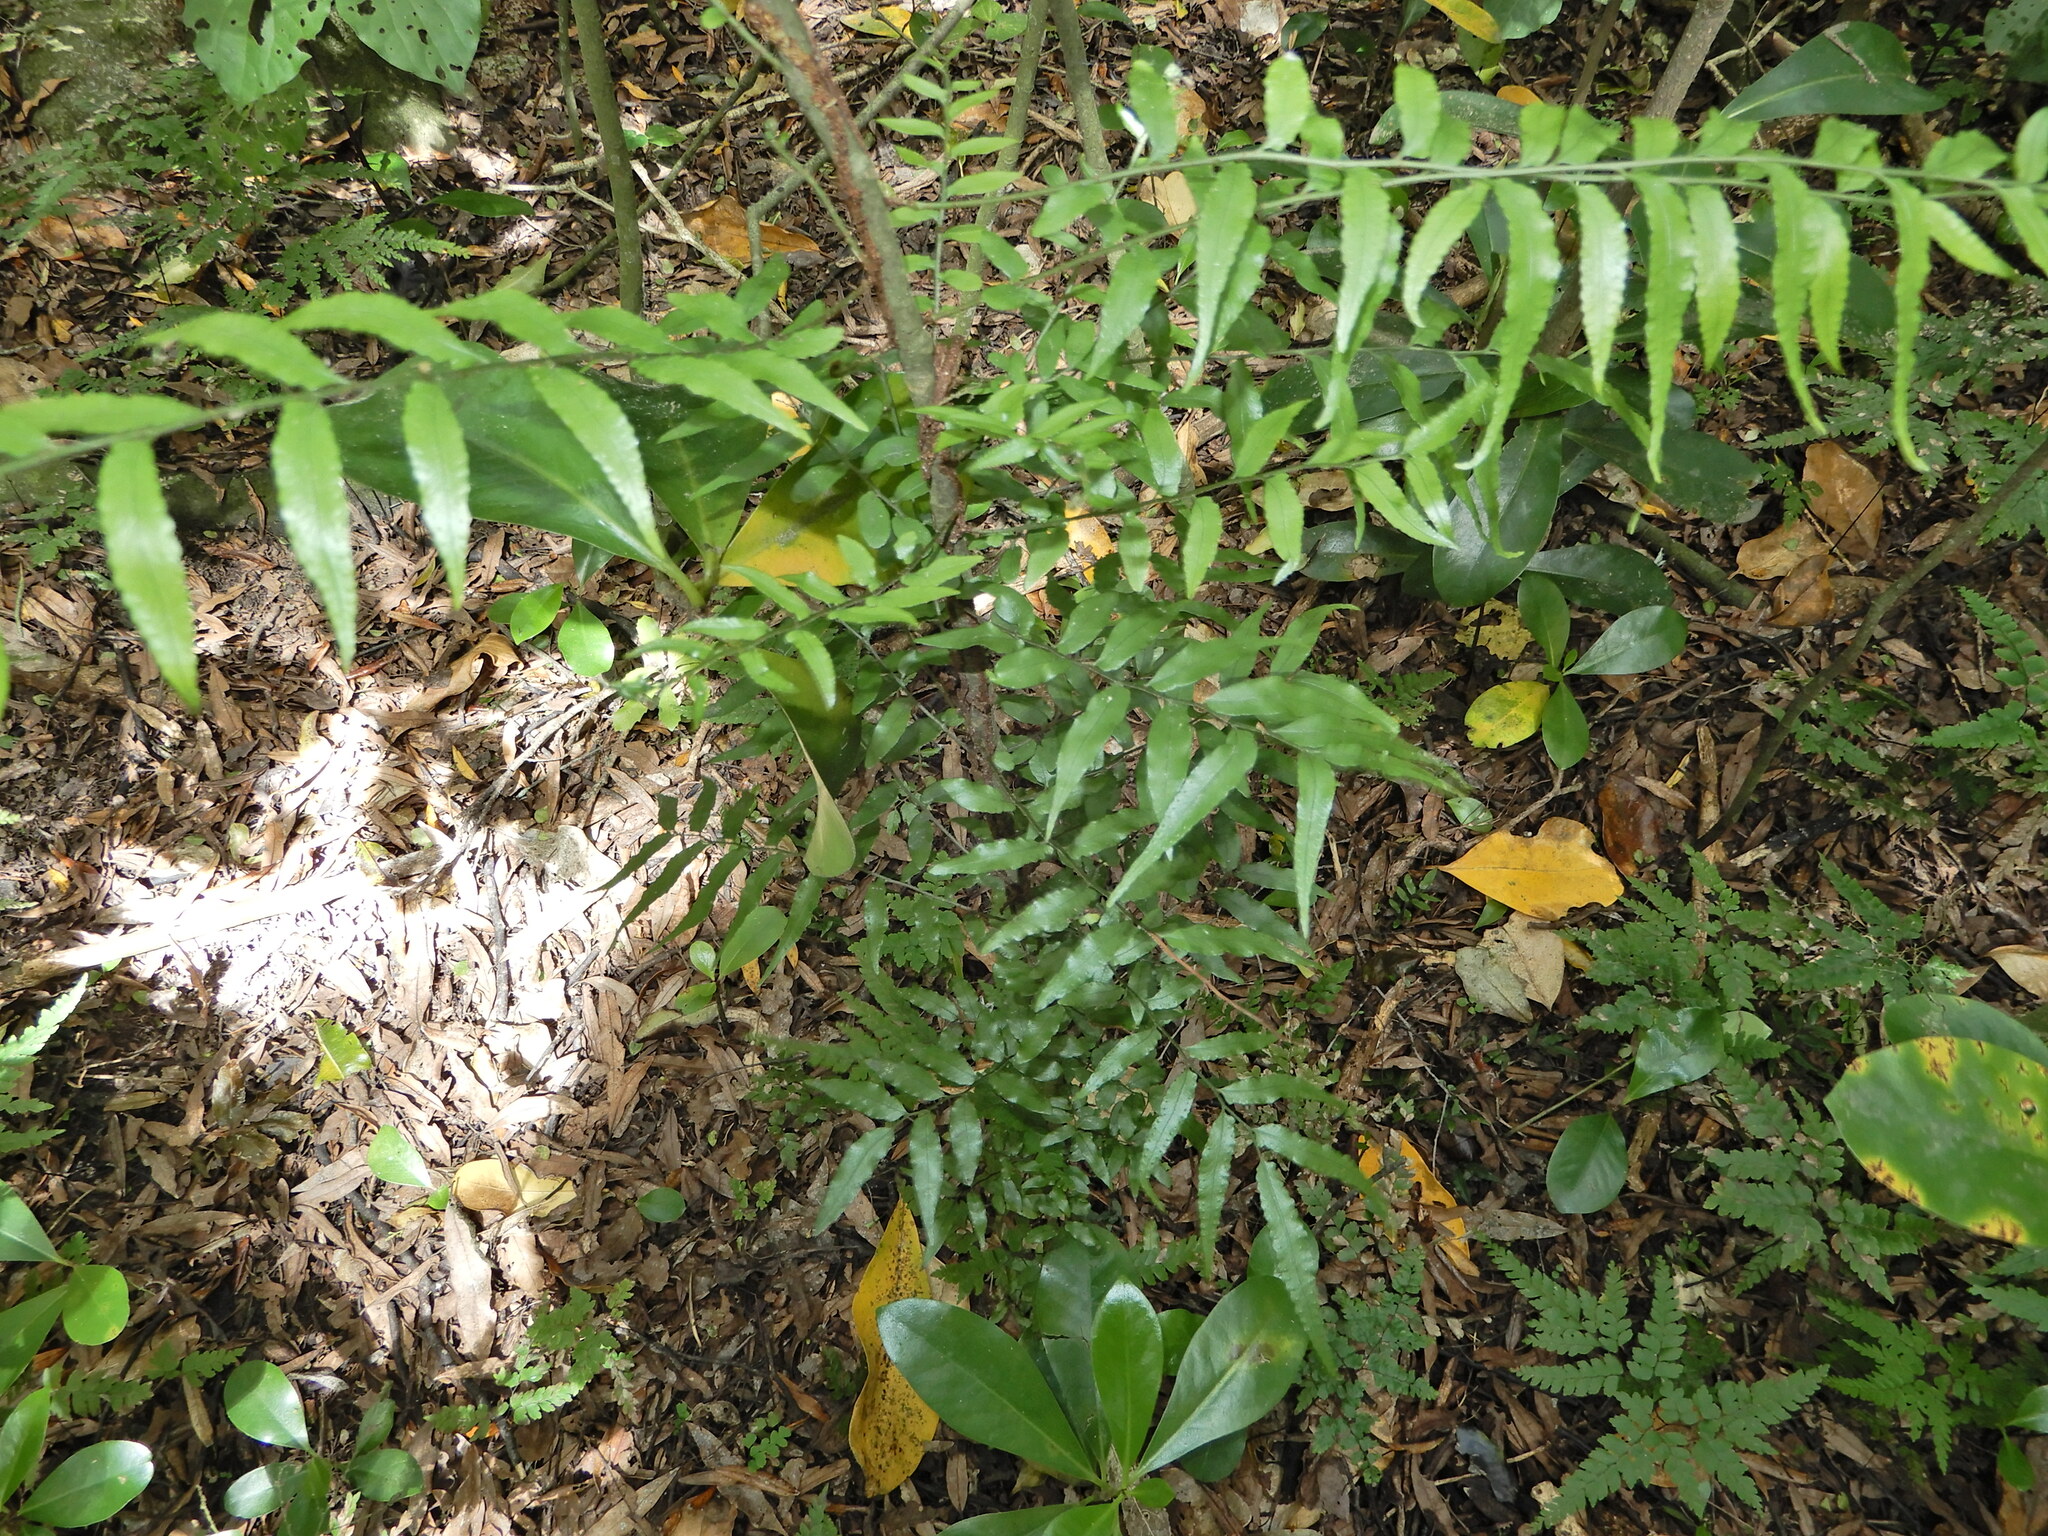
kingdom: Plantae
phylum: Tracheophyta
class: Polypodiopsida
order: Polypodiales
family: Tectariaceae
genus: Arthropteris
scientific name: Arthropteris tenella
